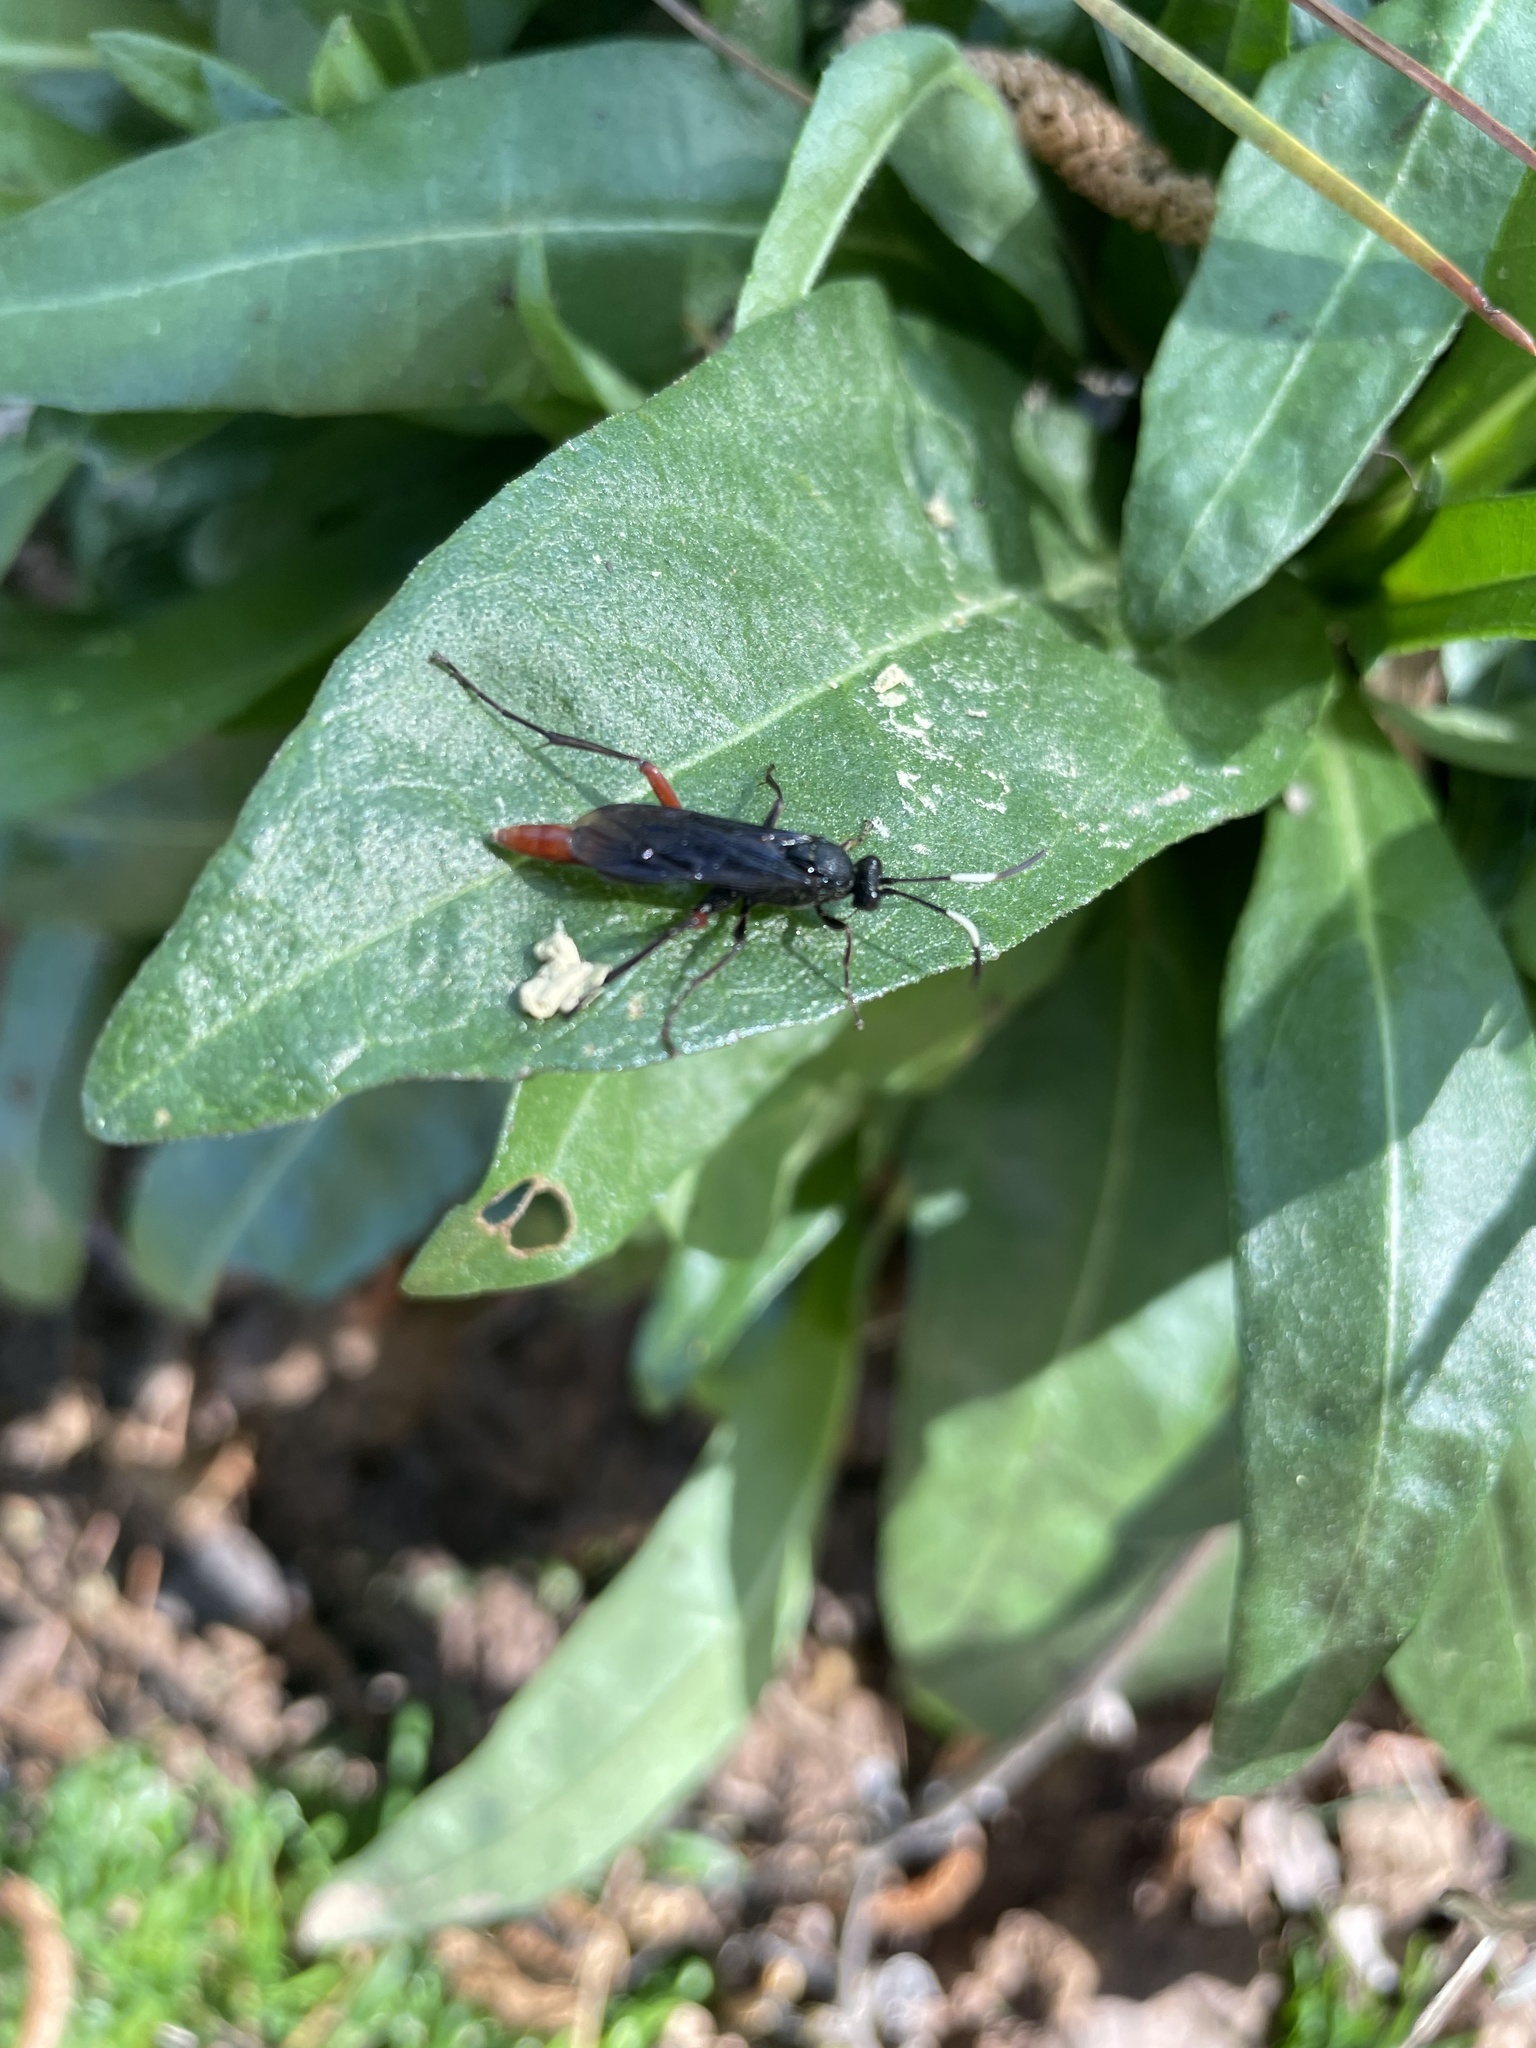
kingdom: Animalia
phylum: Arthropoda
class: Insecta
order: Hymenoptera
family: Ichneumonidae
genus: Limonethe
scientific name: Limonethe maurator
